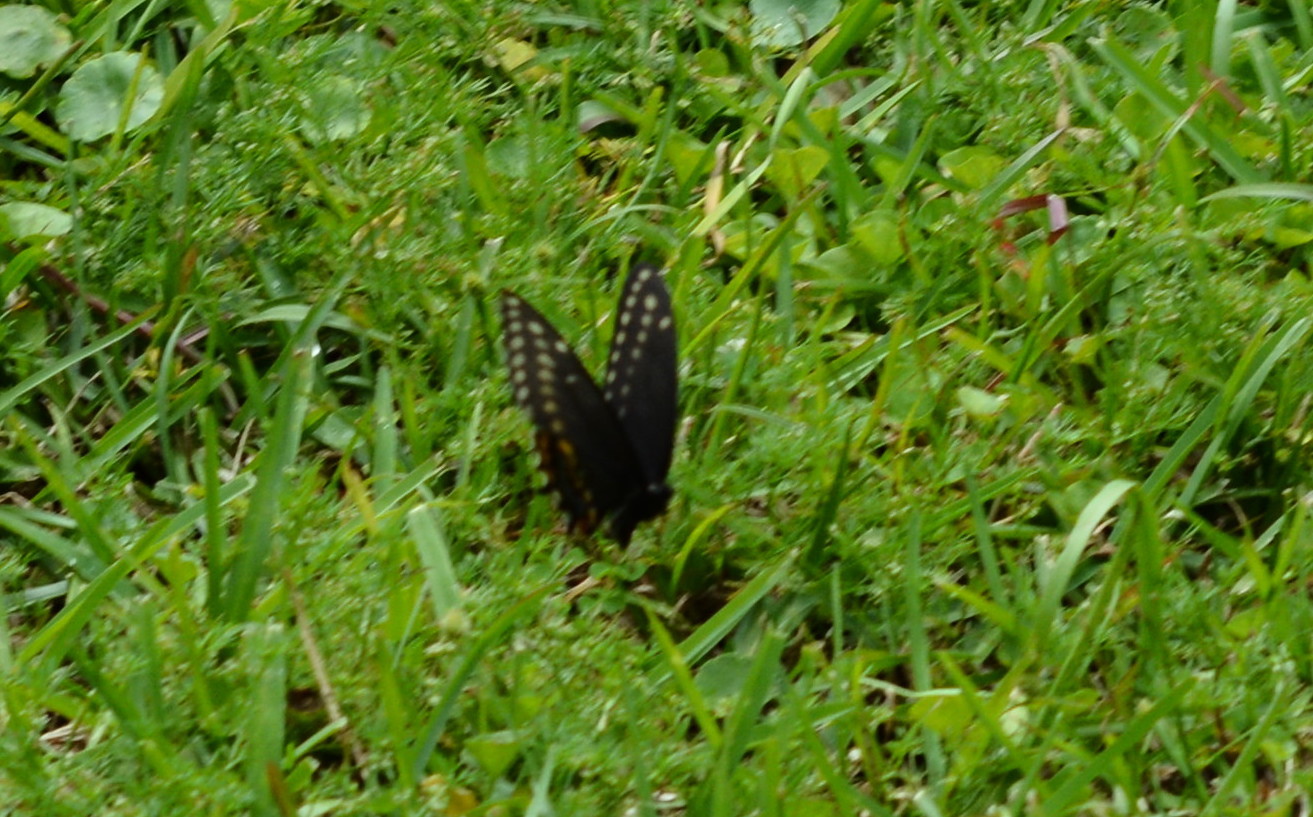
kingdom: Animalia
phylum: Arthropoda
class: Insecta
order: Lepidoptera
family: Papilionidae
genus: Papilio
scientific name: Papilio polyxenes
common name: Black swallowtail
